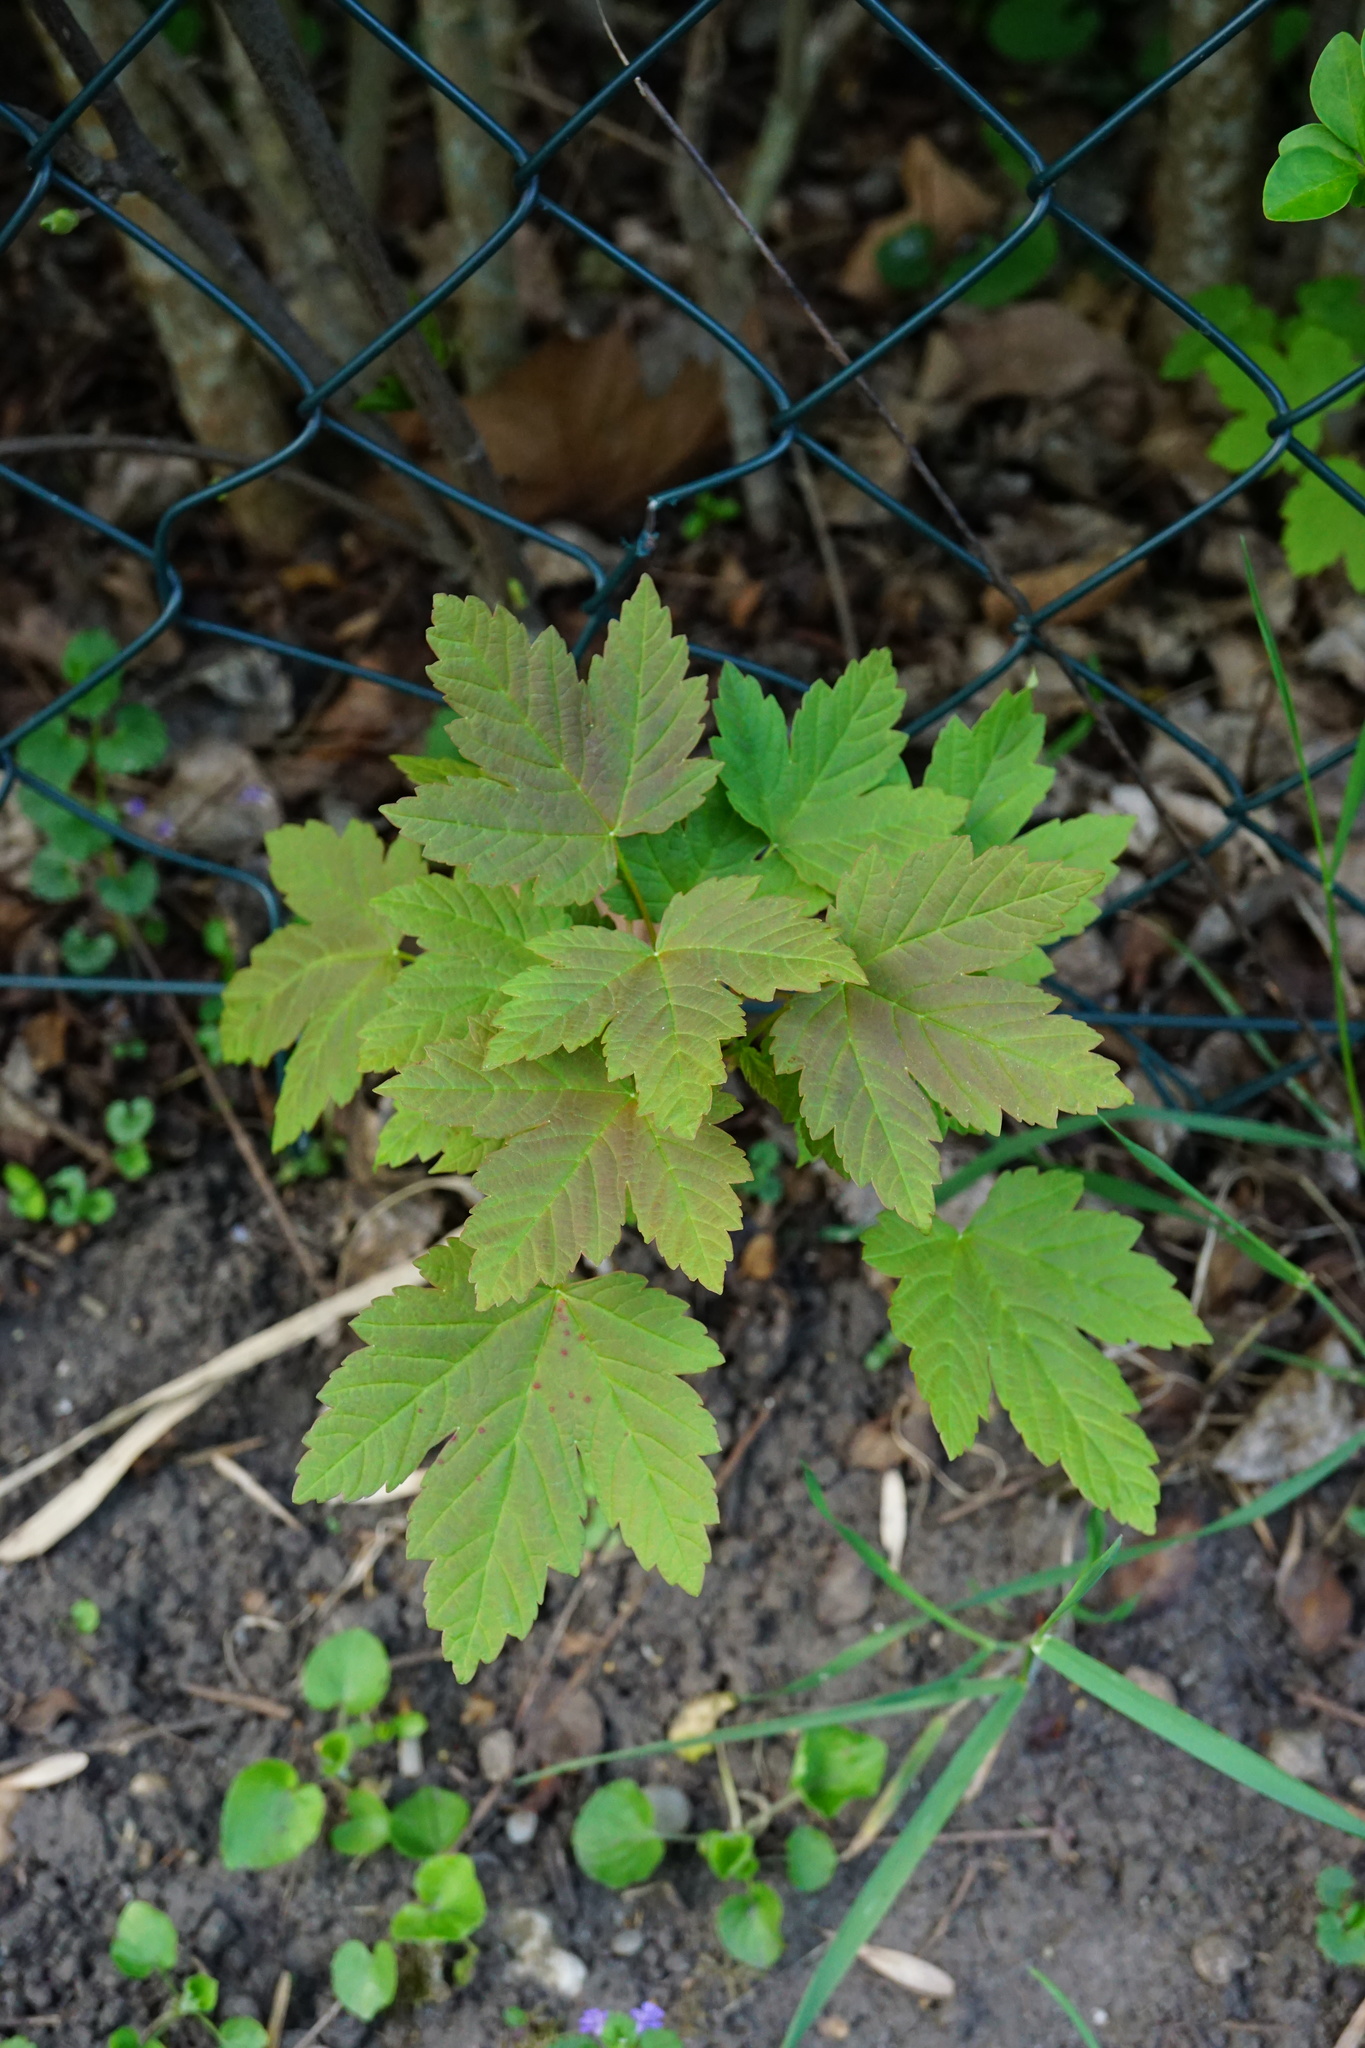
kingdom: Plantae
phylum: Tracheophyta
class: Magnoliopsida
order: Sapindales
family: Sapindaceae
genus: Acer
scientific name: Acer pseudoplatanus
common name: Sycamore
